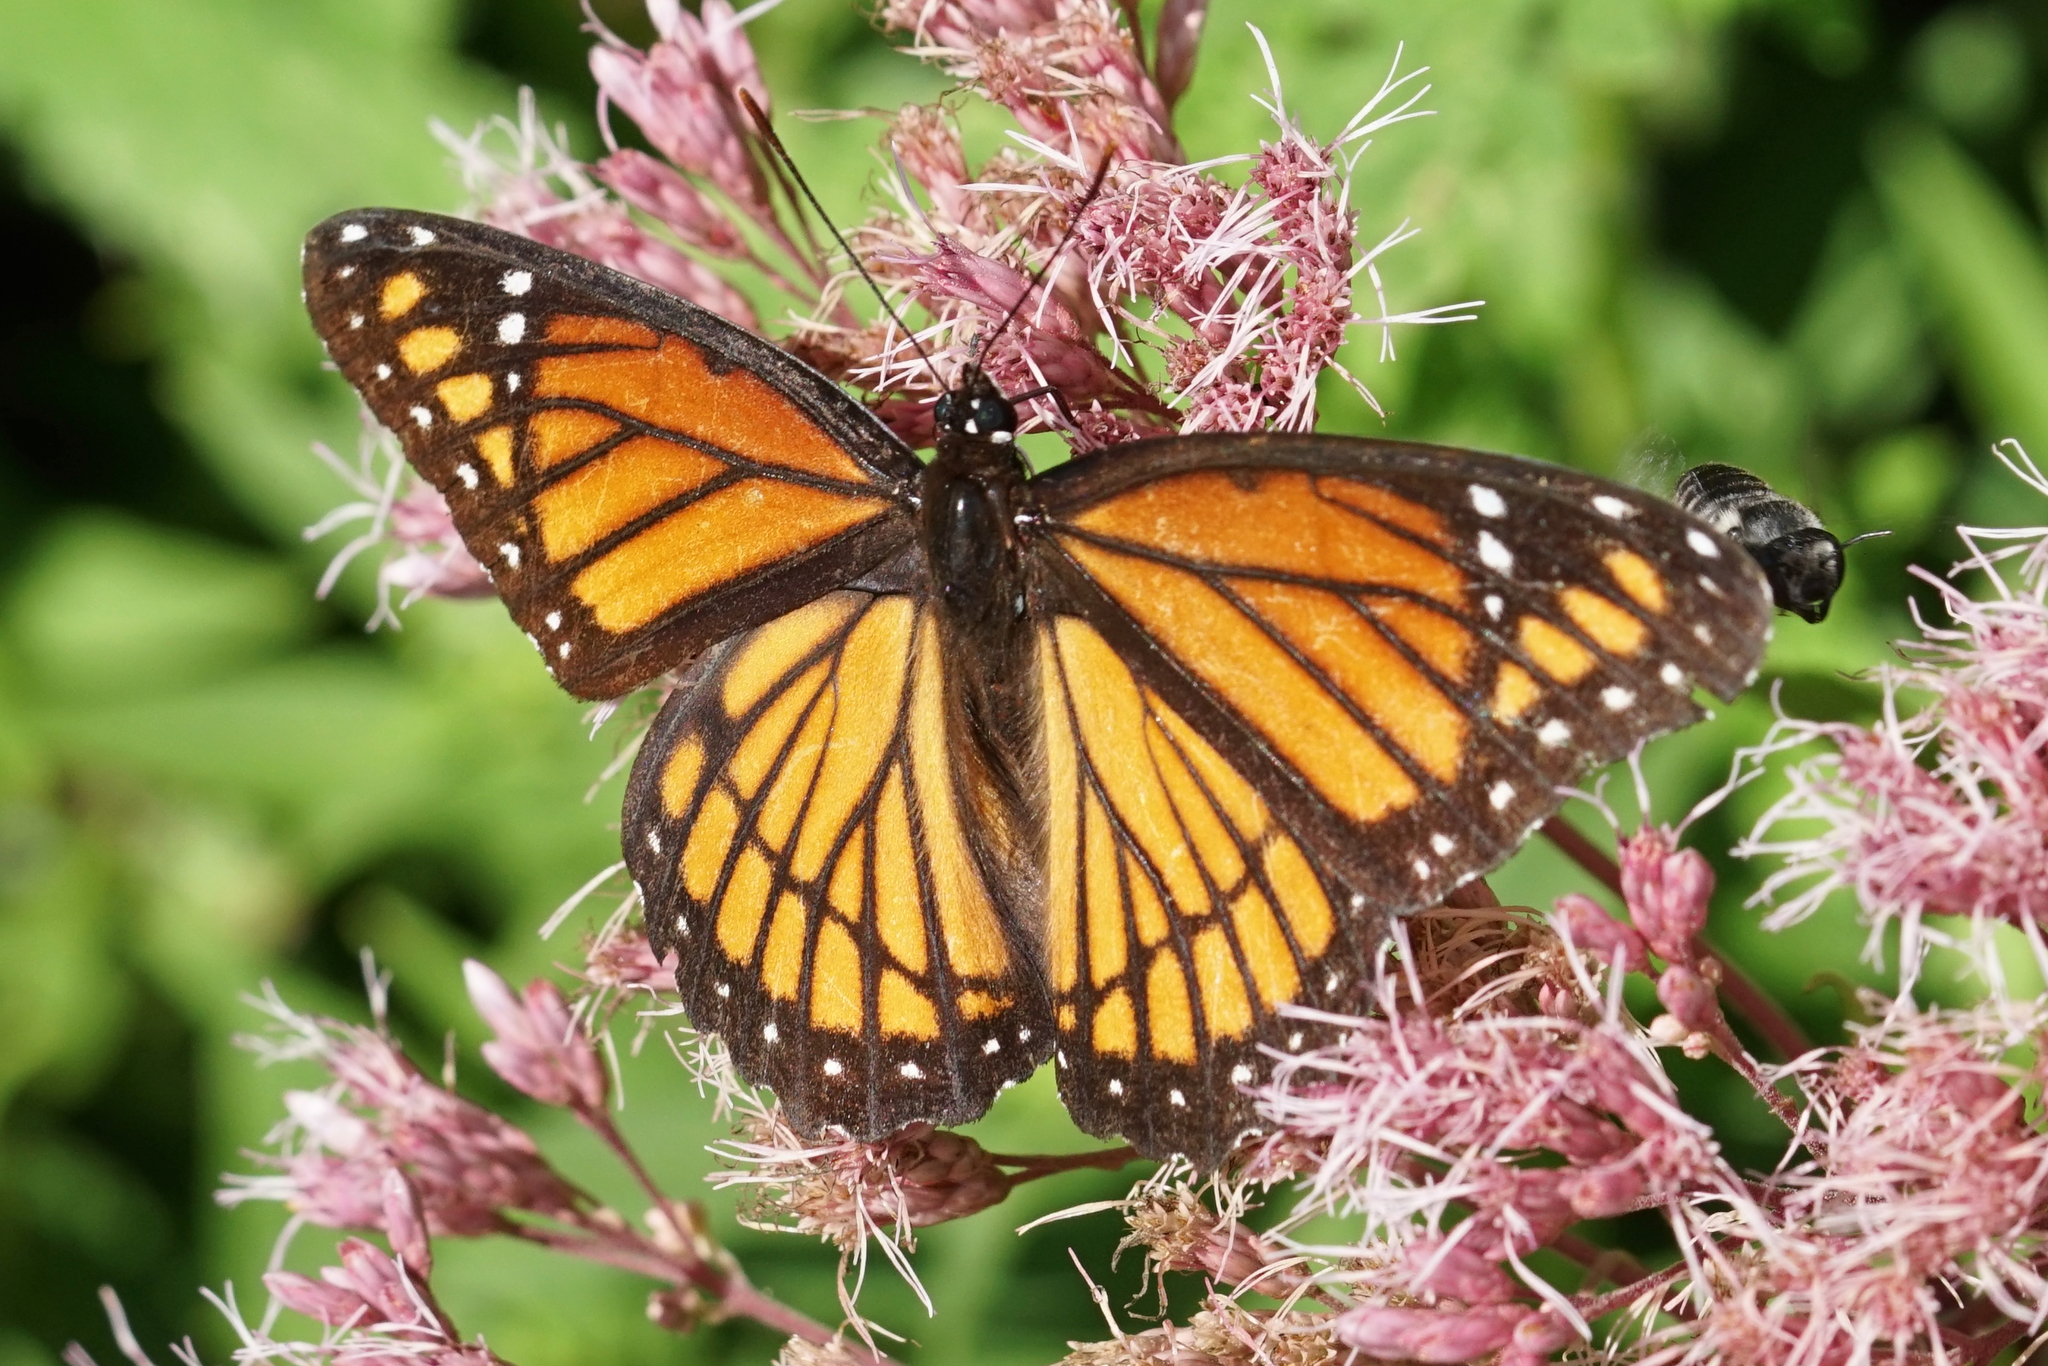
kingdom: Animalia
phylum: Arthropoda
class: Insecta
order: Lepidoptera
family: Nymphalidae
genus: Limenitis
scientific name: Limenitis archippus
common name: Viceroy
